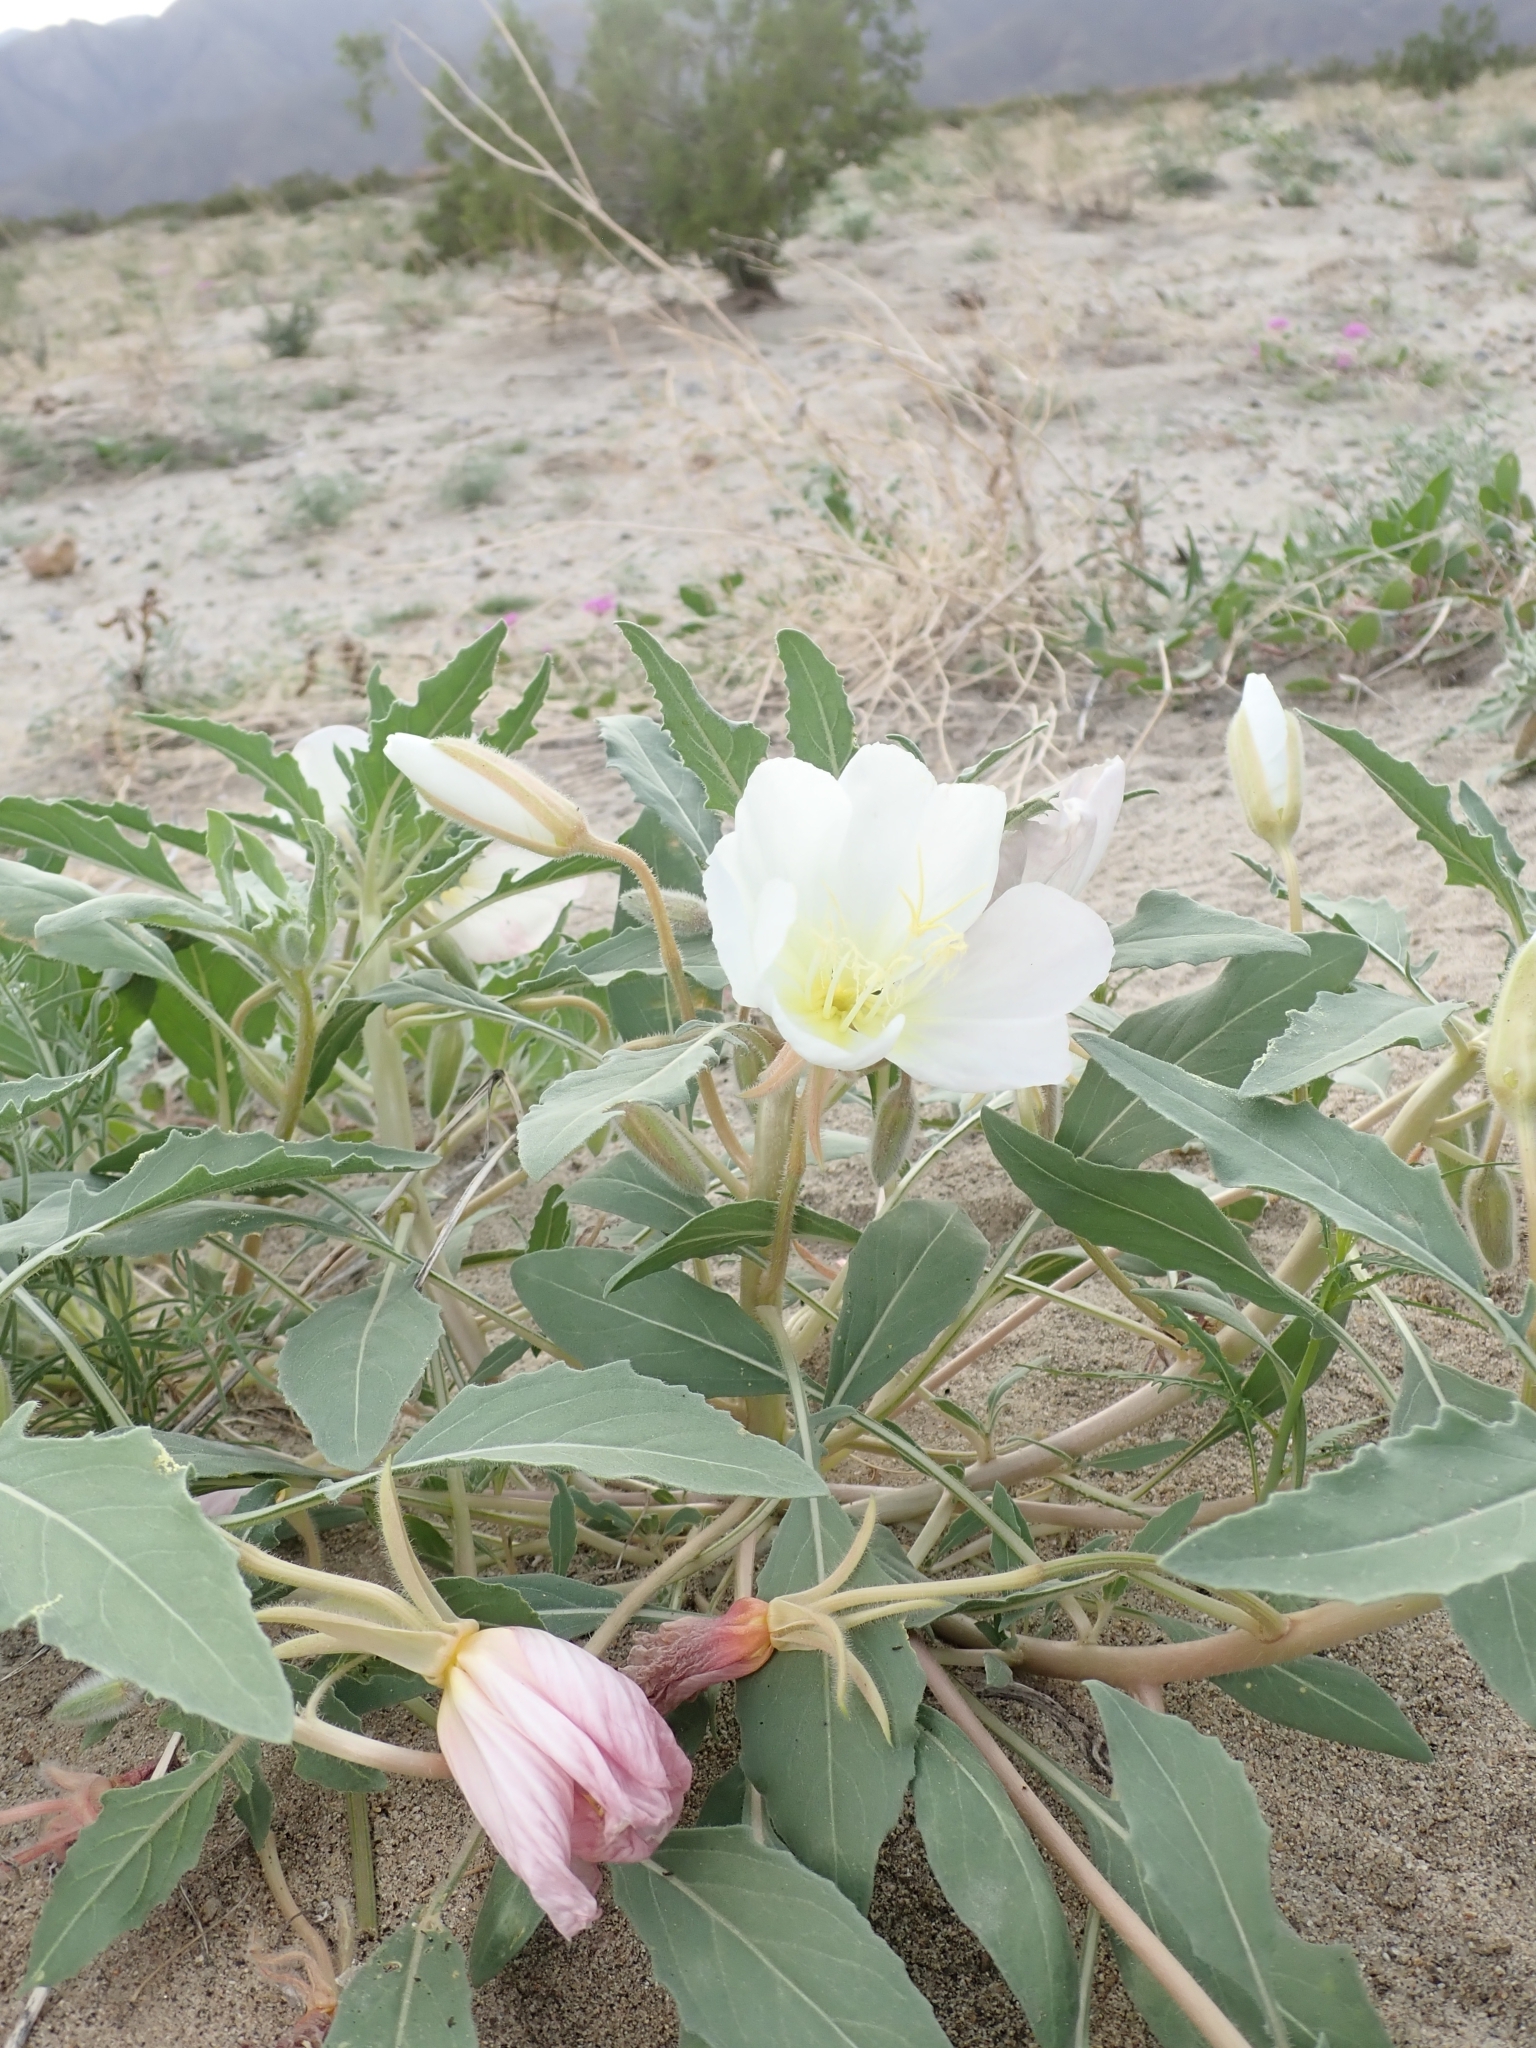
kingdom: Plantae
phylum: Tracheophyta
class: Magnoliopsida
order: Myrtales
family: Onagraceae
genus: Oenothera
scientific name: Oenothera deltoides
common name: Basket evening-primrose
